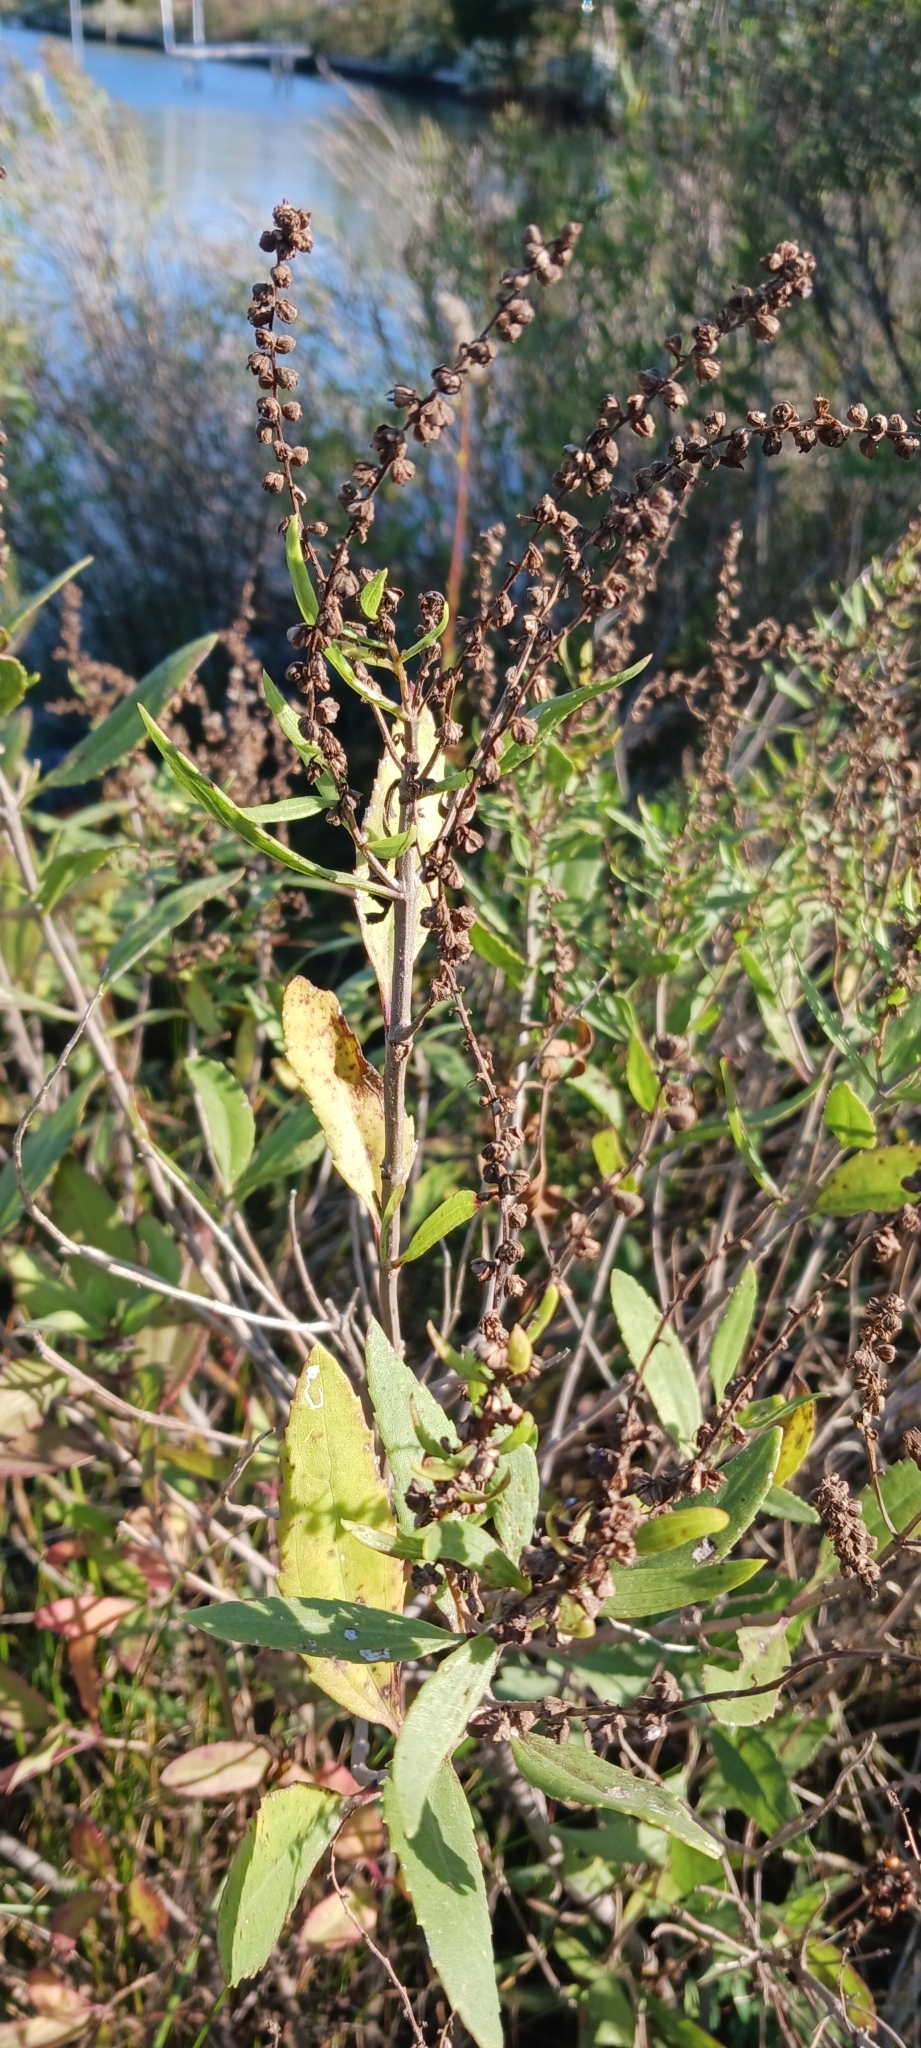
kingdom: Plantae
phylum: Tracheophyta
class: Magnoliopsida
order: Asterales
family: Asteraceae
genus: Iva
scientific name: Iva frutescens
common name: Big-leaved marsh-elder
